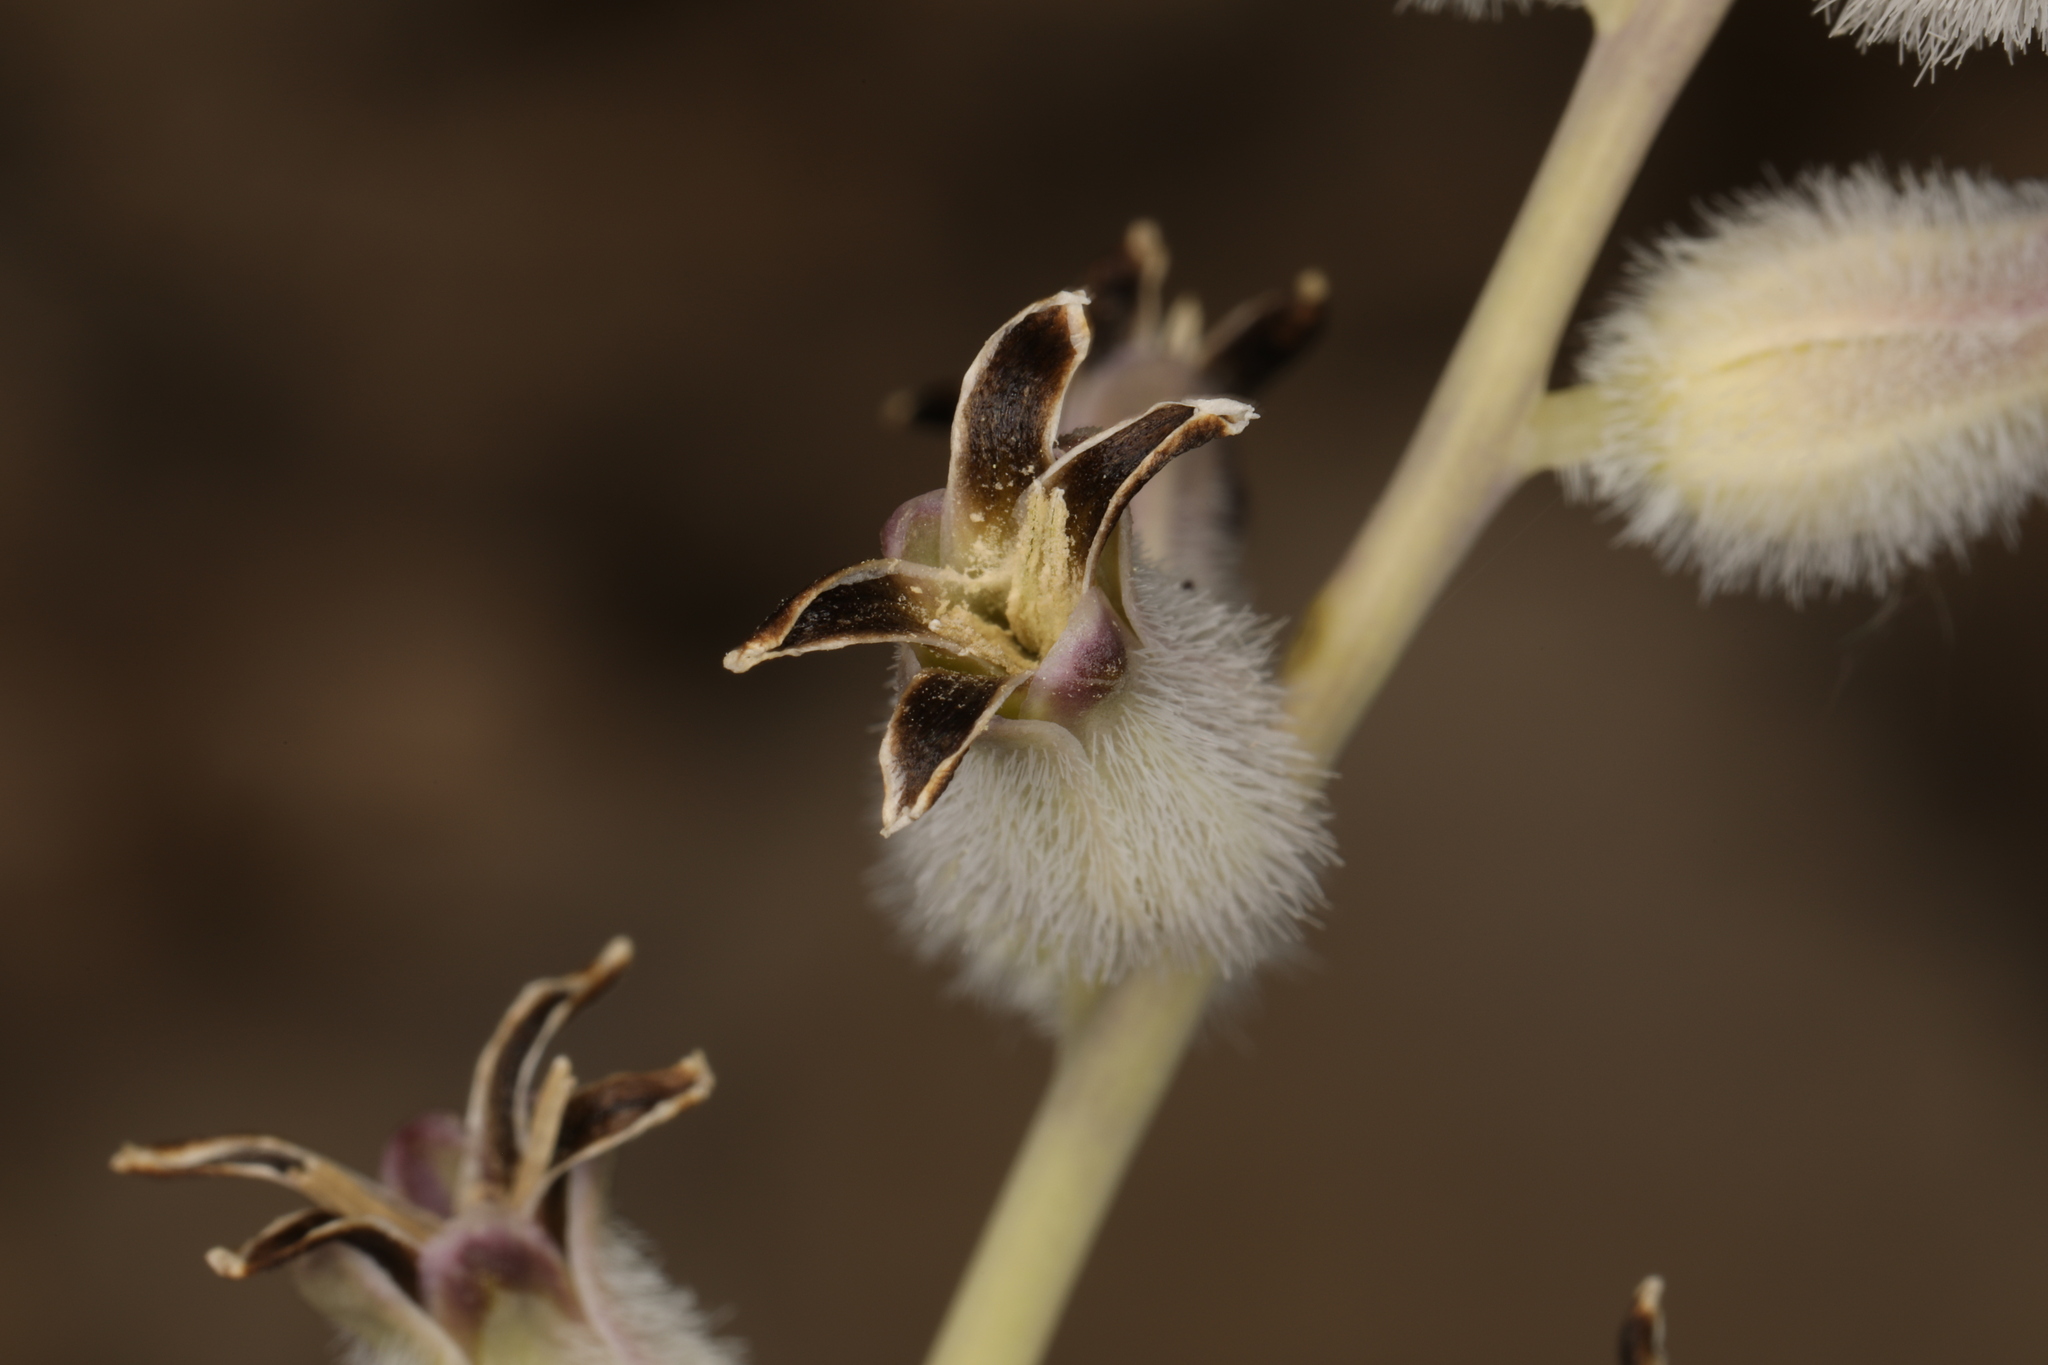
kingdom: Plantae
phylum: Tracheophyta
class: Magnoliopsida
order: Brassicales
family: Brassicaceae
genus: Streptanthus
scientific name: Streptanthus crassicaulis
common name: Thick-stem wild cabbage
